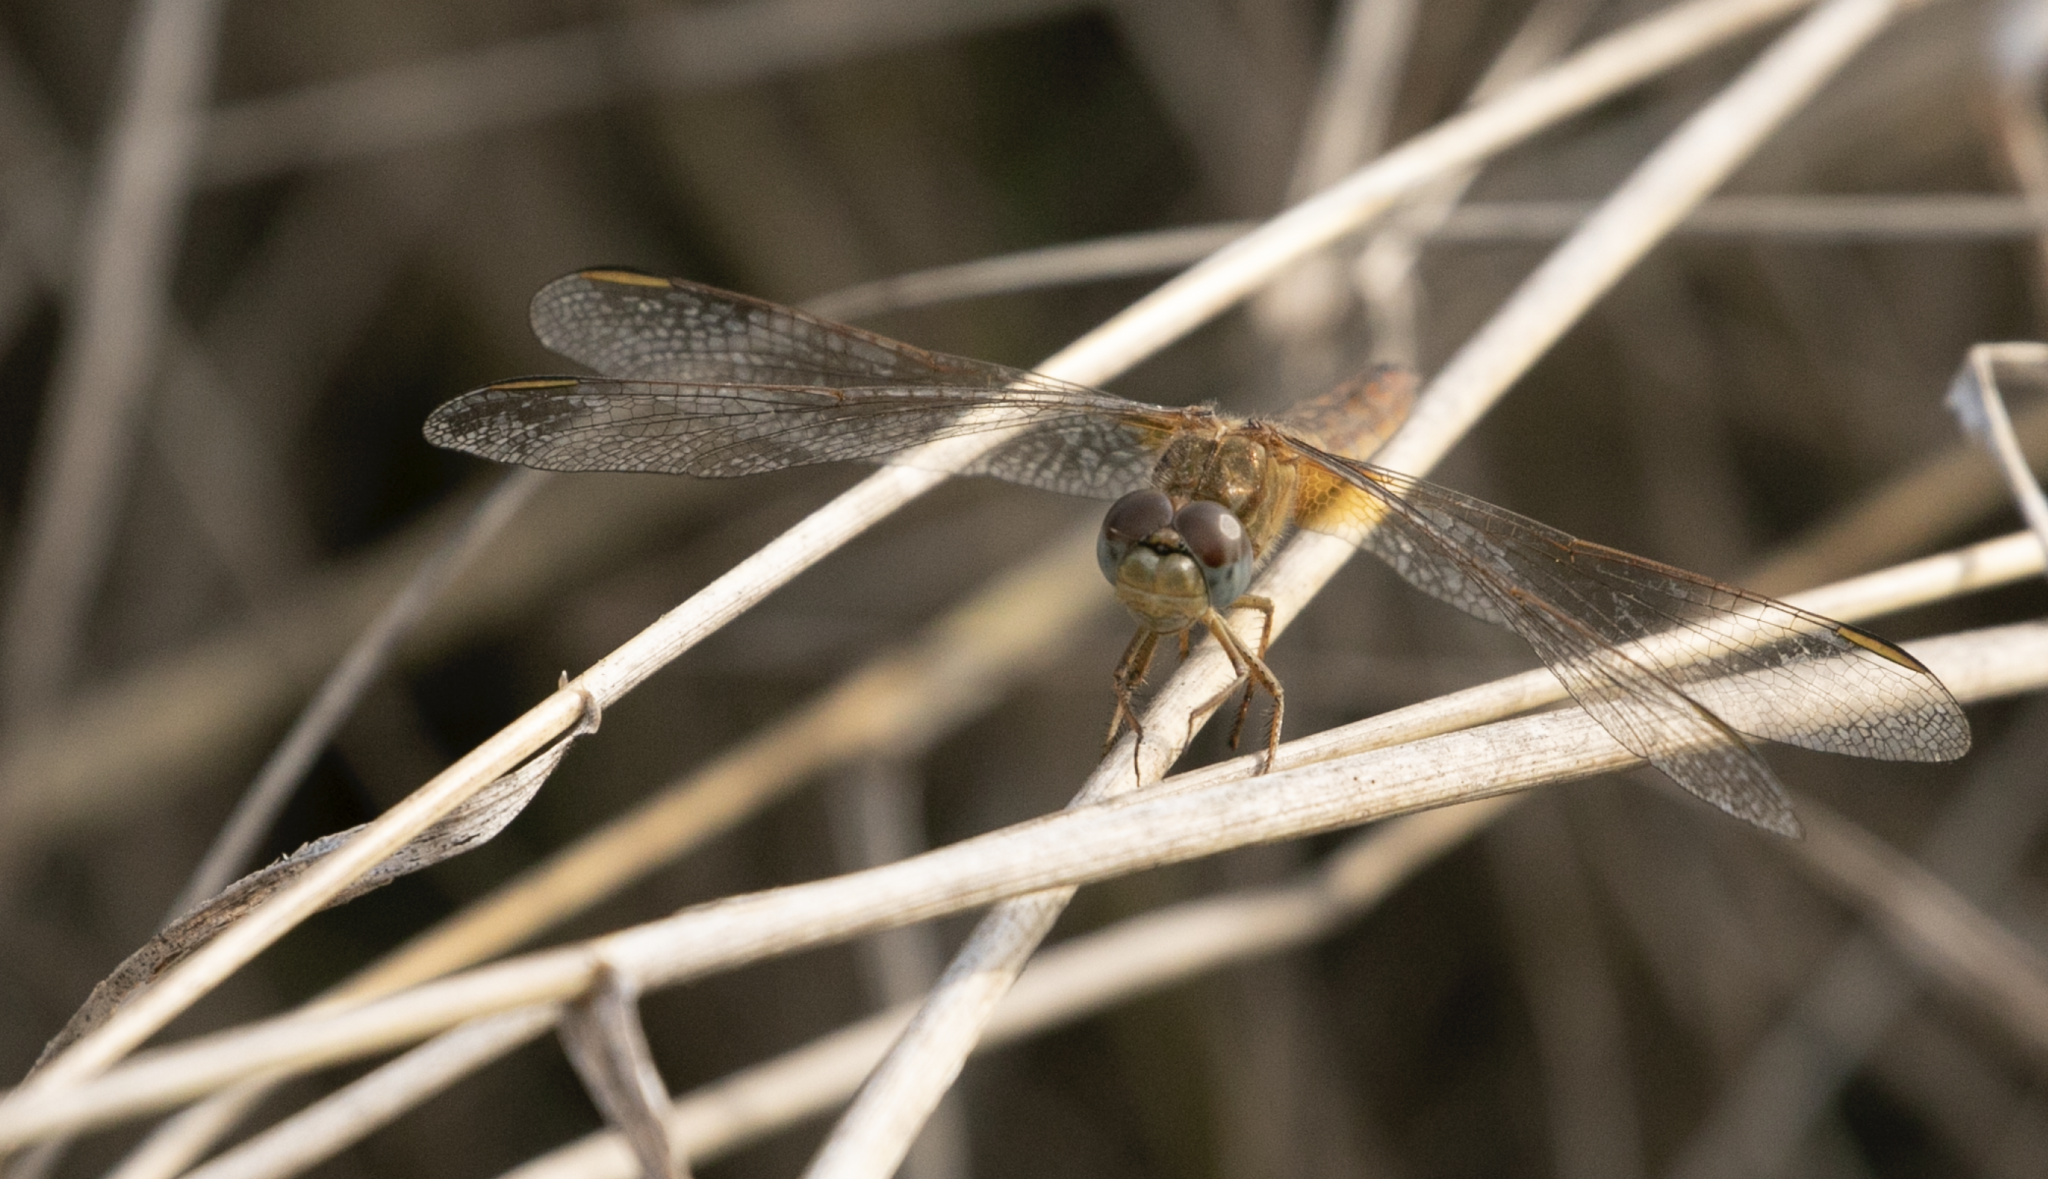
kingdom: Animalia
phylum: Arthropoda
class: Insecta
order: Odonata
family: Libellulidae
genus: Crocothemis
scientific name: Crocothemis erythraea
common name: Scarlet dragonfly
